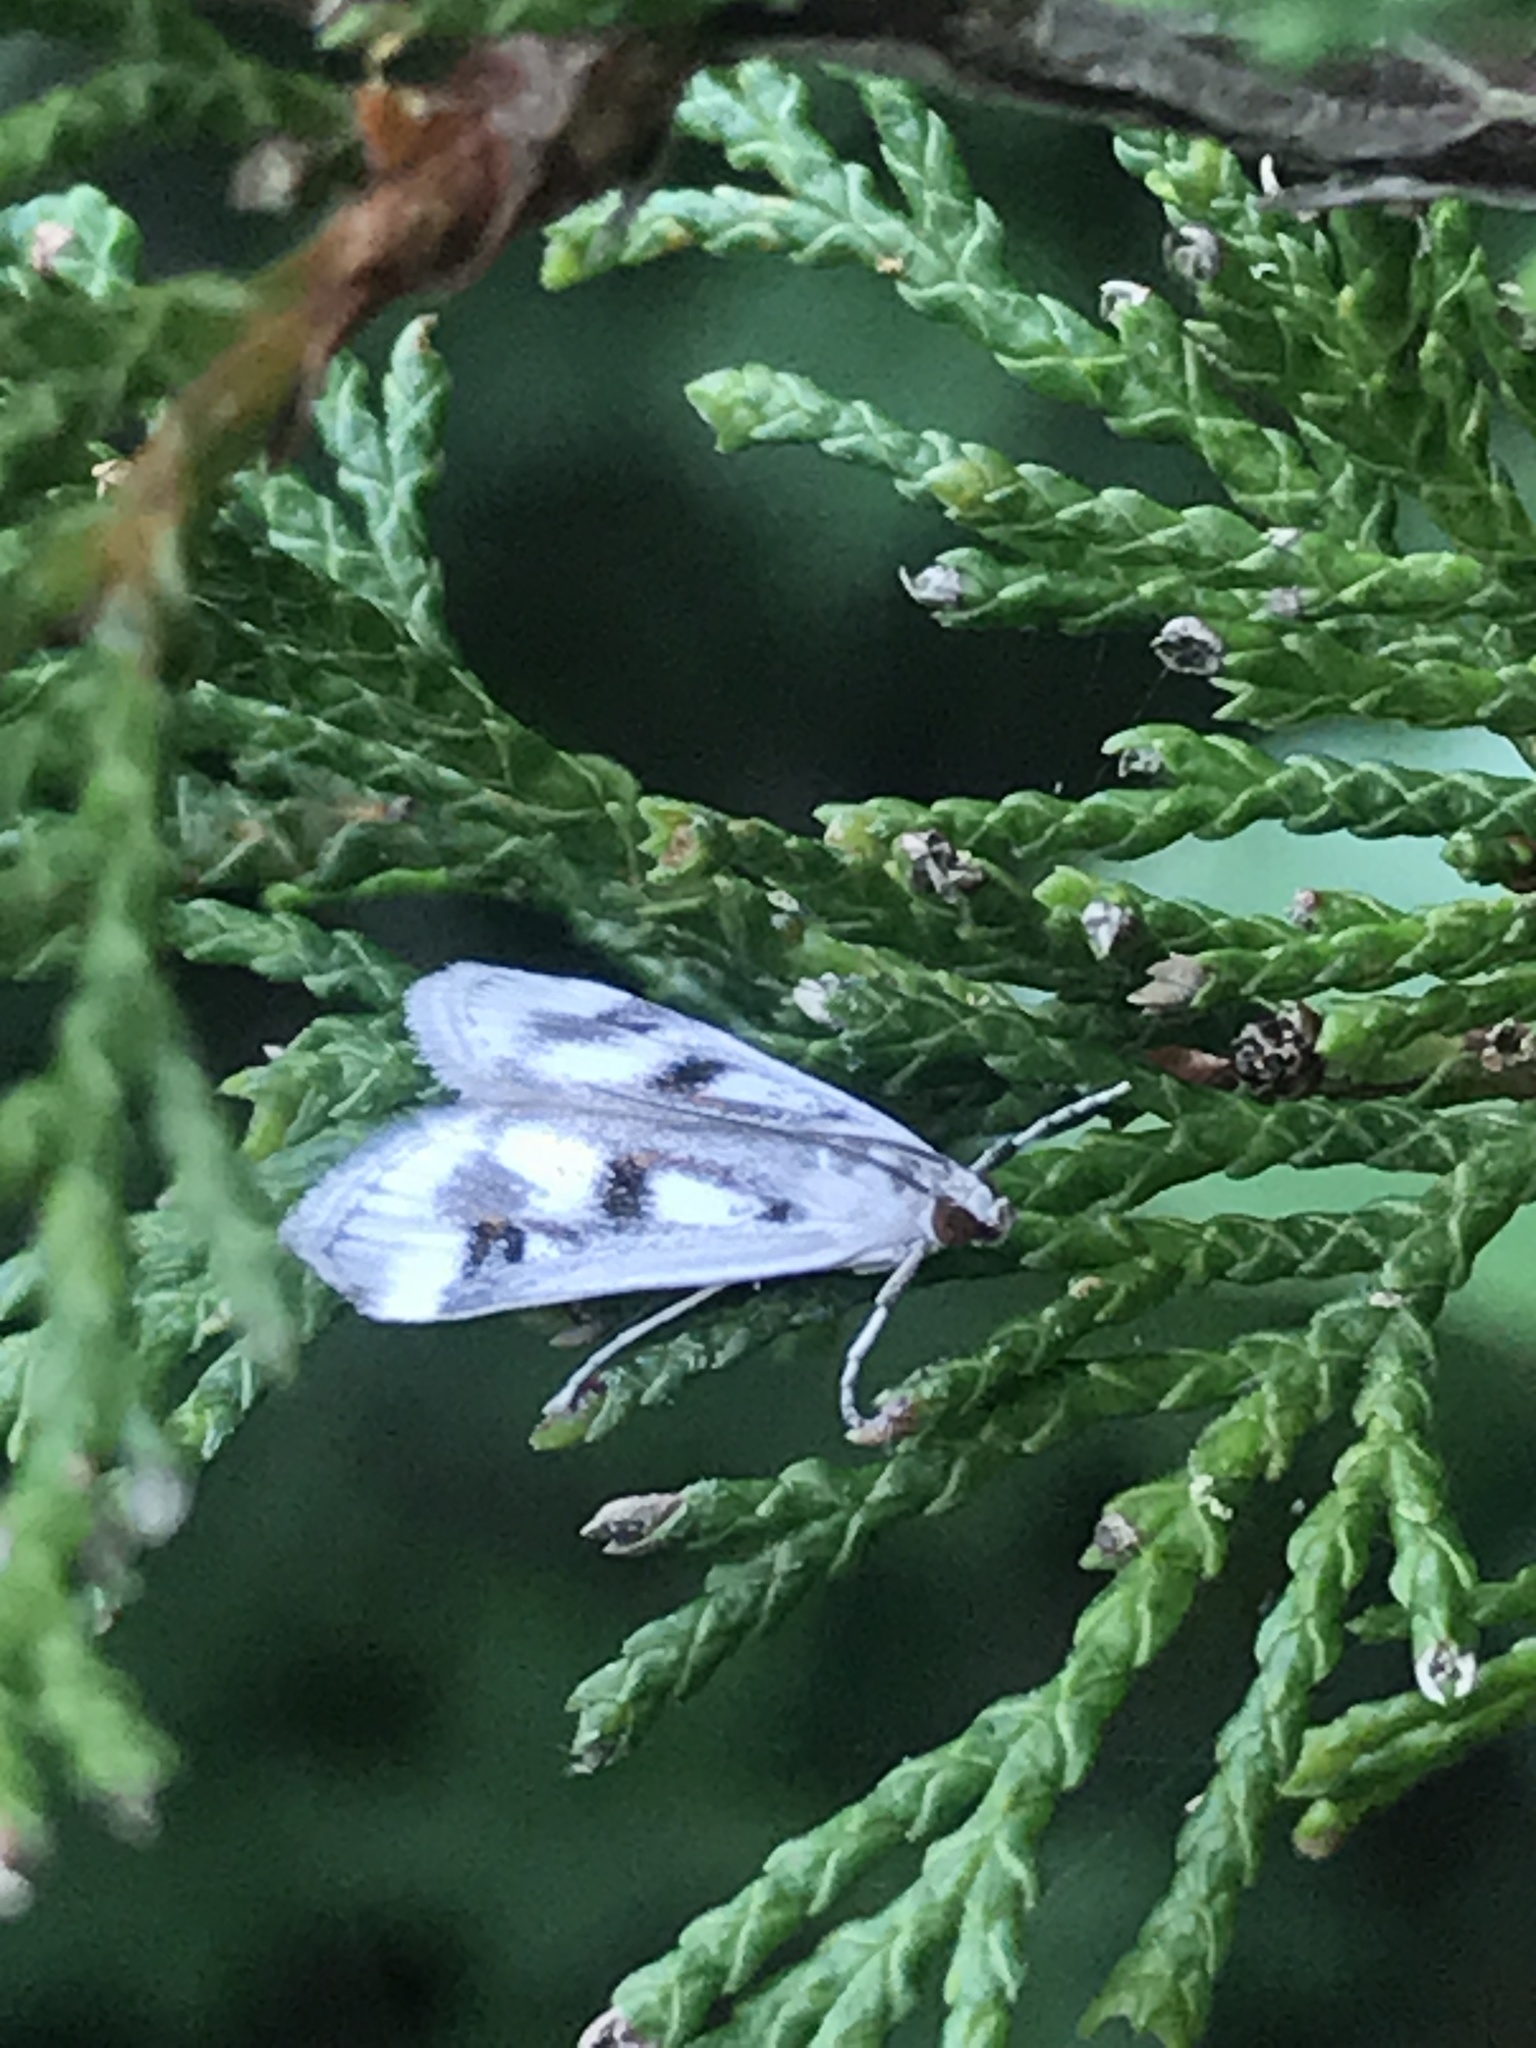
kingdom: Animalia
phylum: Arthropoda
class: Insecta
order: Lepidoptera
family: Crambidae
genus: Parapoynx
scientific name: Parapoynx maculalis
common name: Polymorphic pondweed moth
